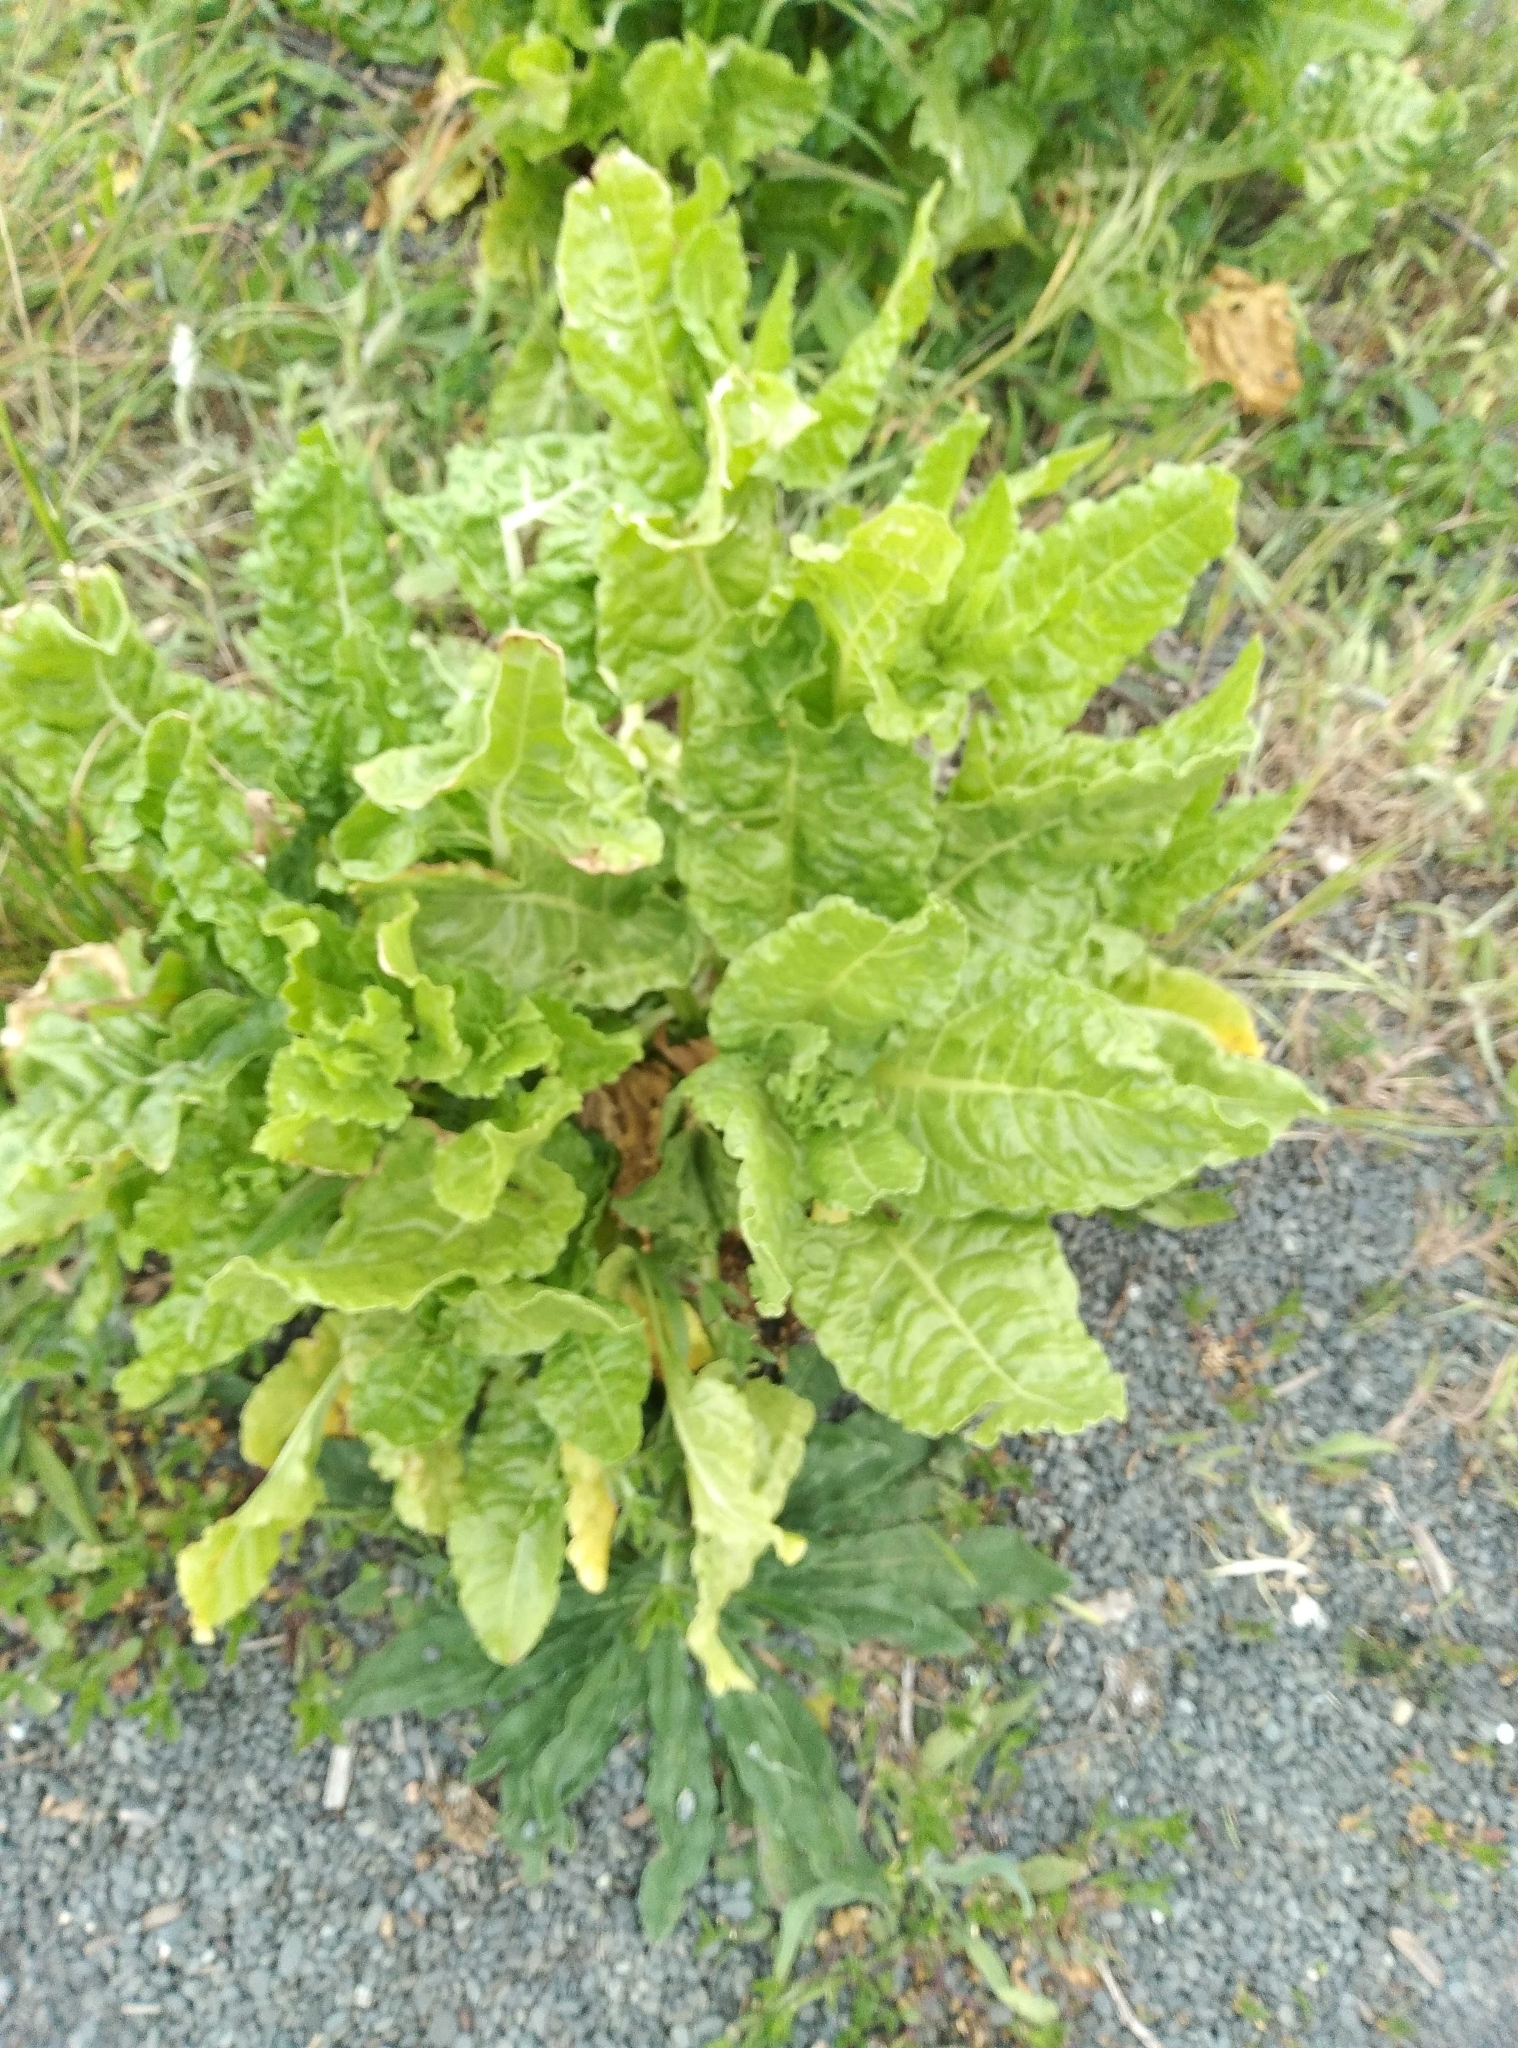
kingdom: Plantae
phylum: Tracheophyta
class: Magnoliopsida
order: Caryophyllales
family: Amaranthaceae
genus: Beta
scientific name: Beta vulgaris
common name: Beet
